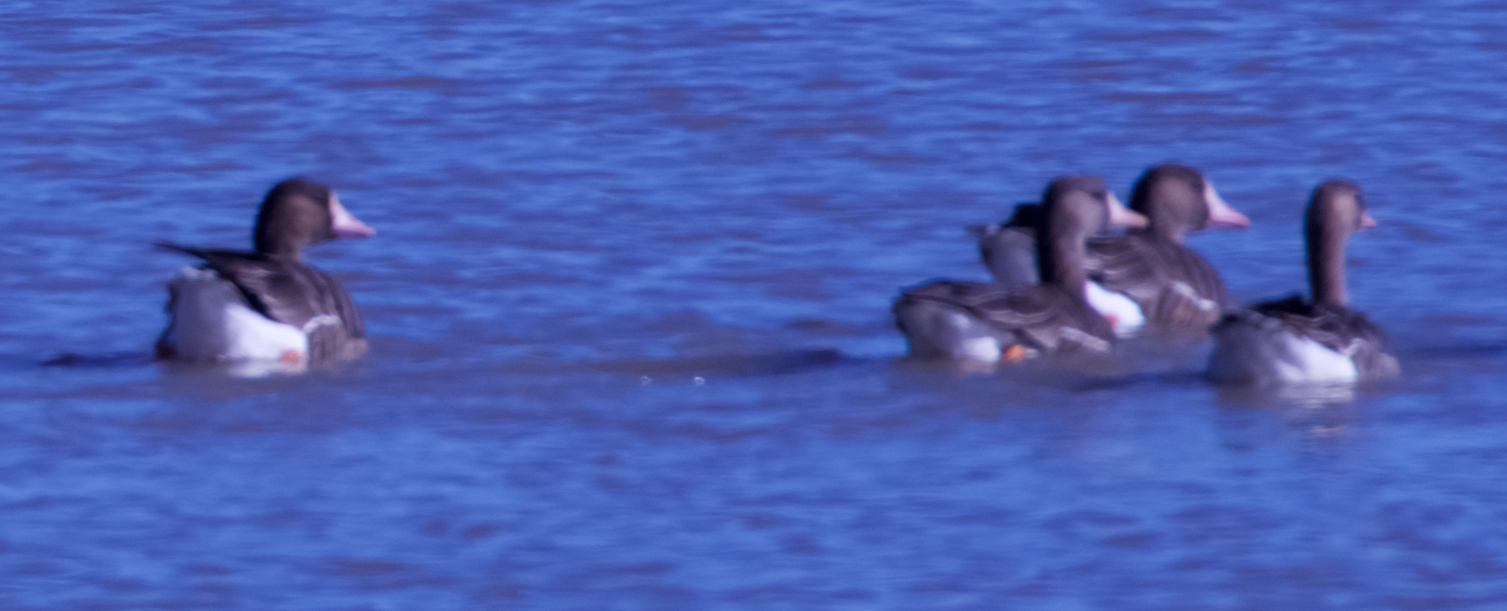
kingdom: Animalia
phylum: Chordata
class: Aves
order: Anseriformes
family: Anatidae
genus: Anser
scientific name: Anser albifrons
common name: Greater white-fronted goose
